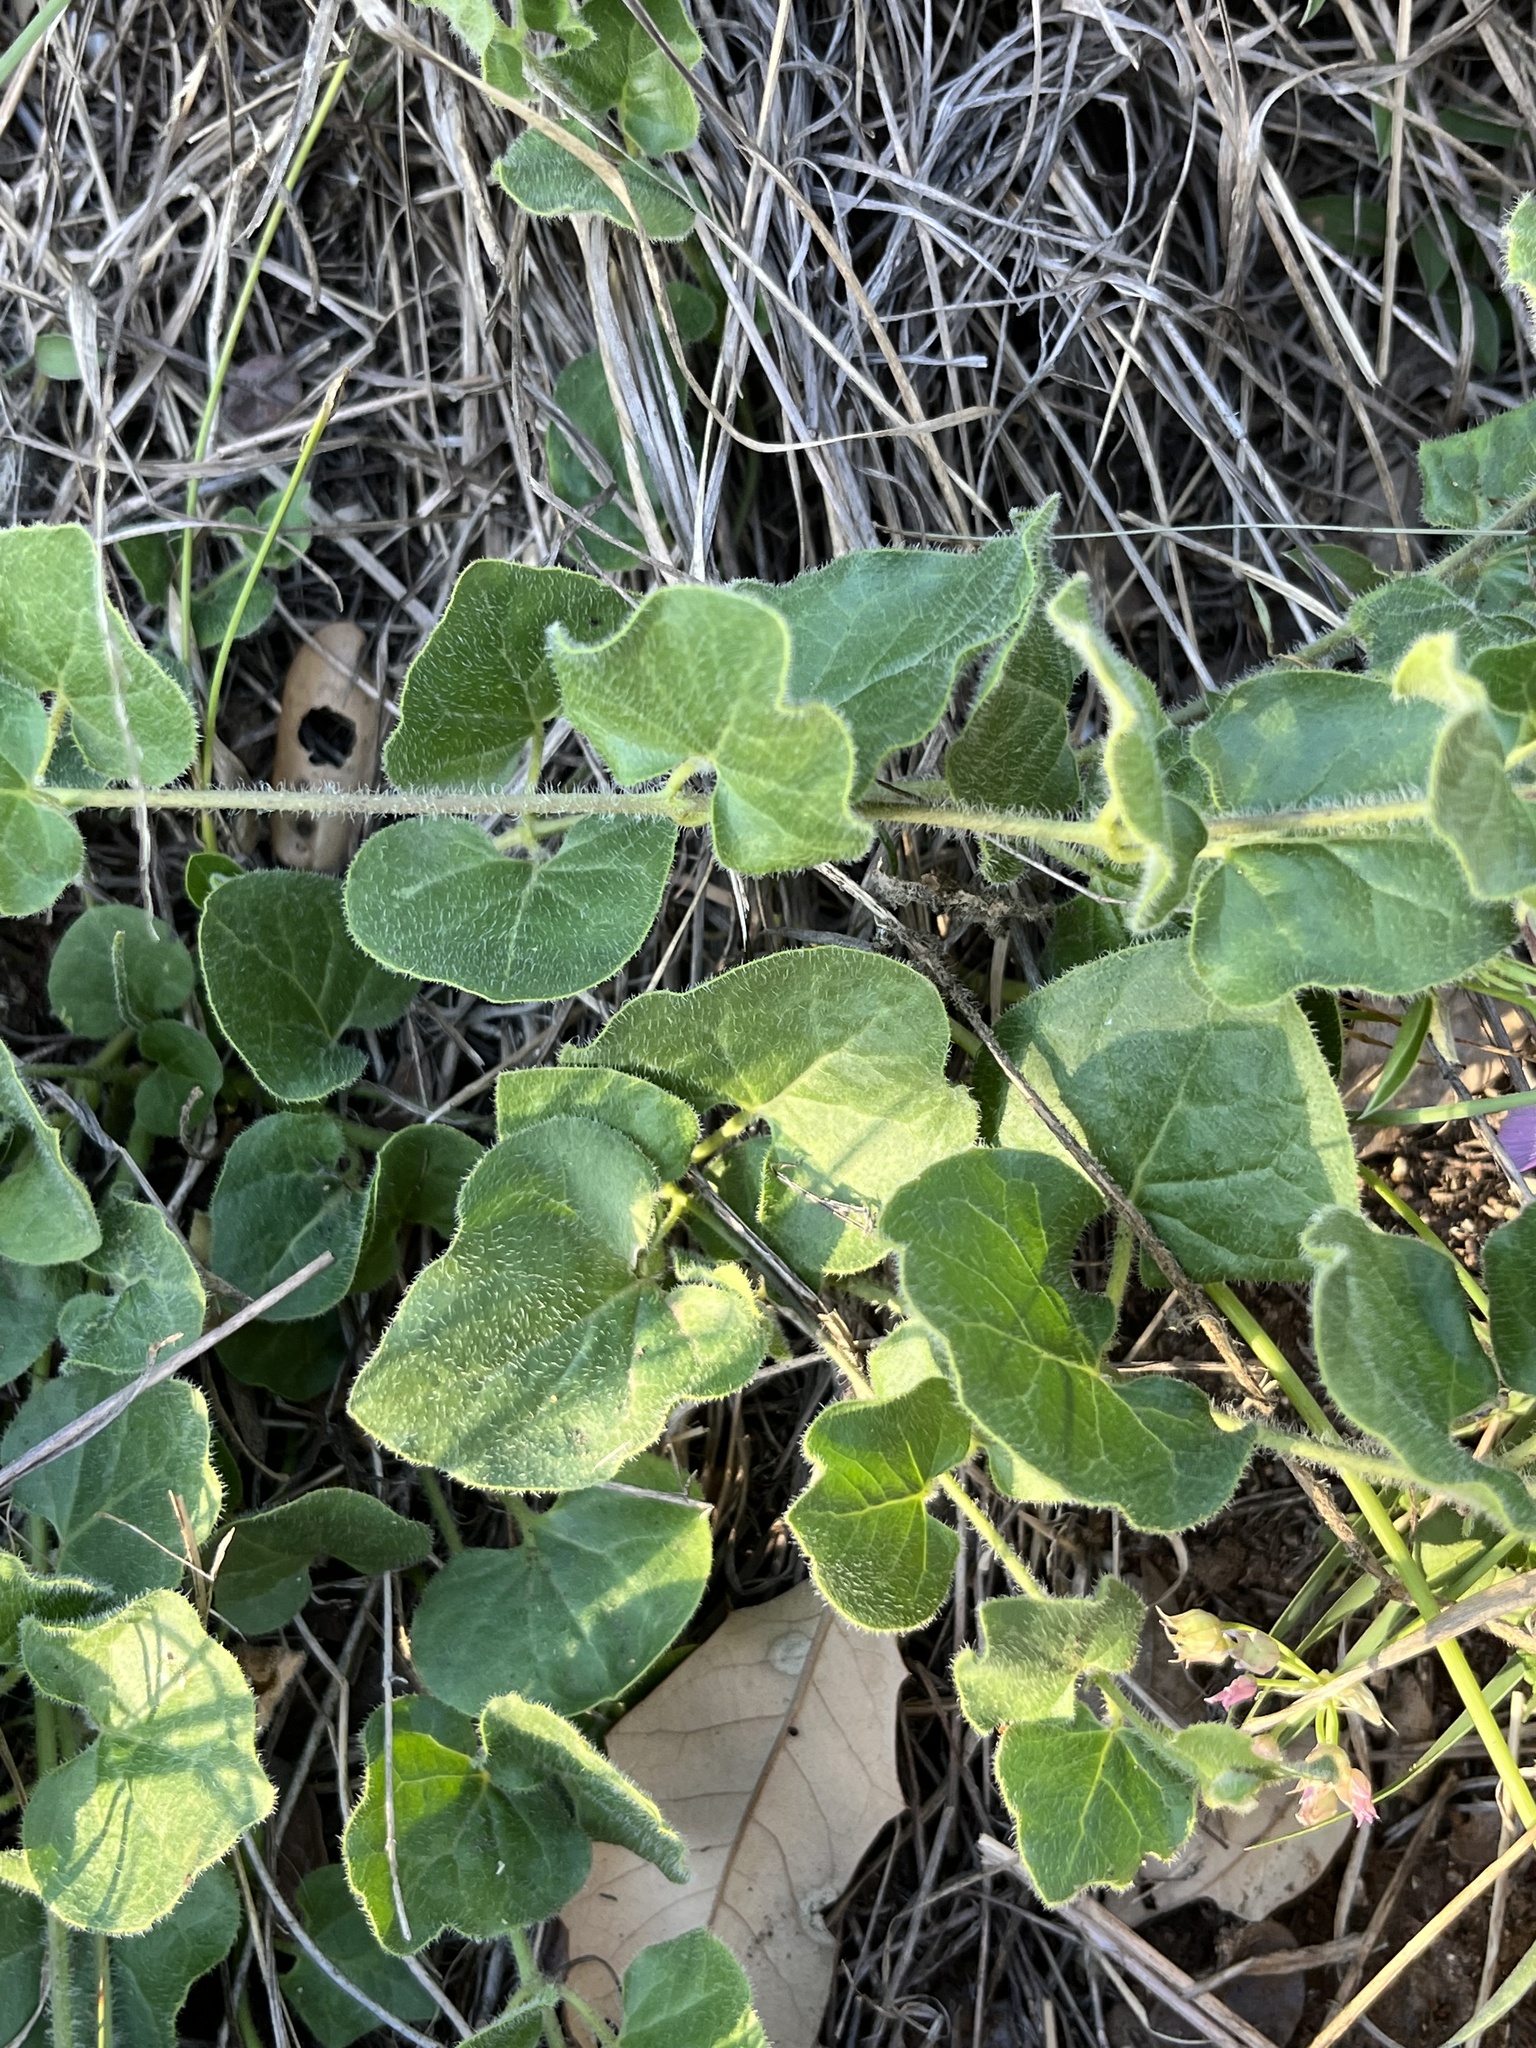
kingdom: Plantae
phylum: Tracheophyta
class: Magnoliopsida
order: Gentianales
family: Apocynaceae
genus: Chthamalia
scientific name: Chthamalia biflora
